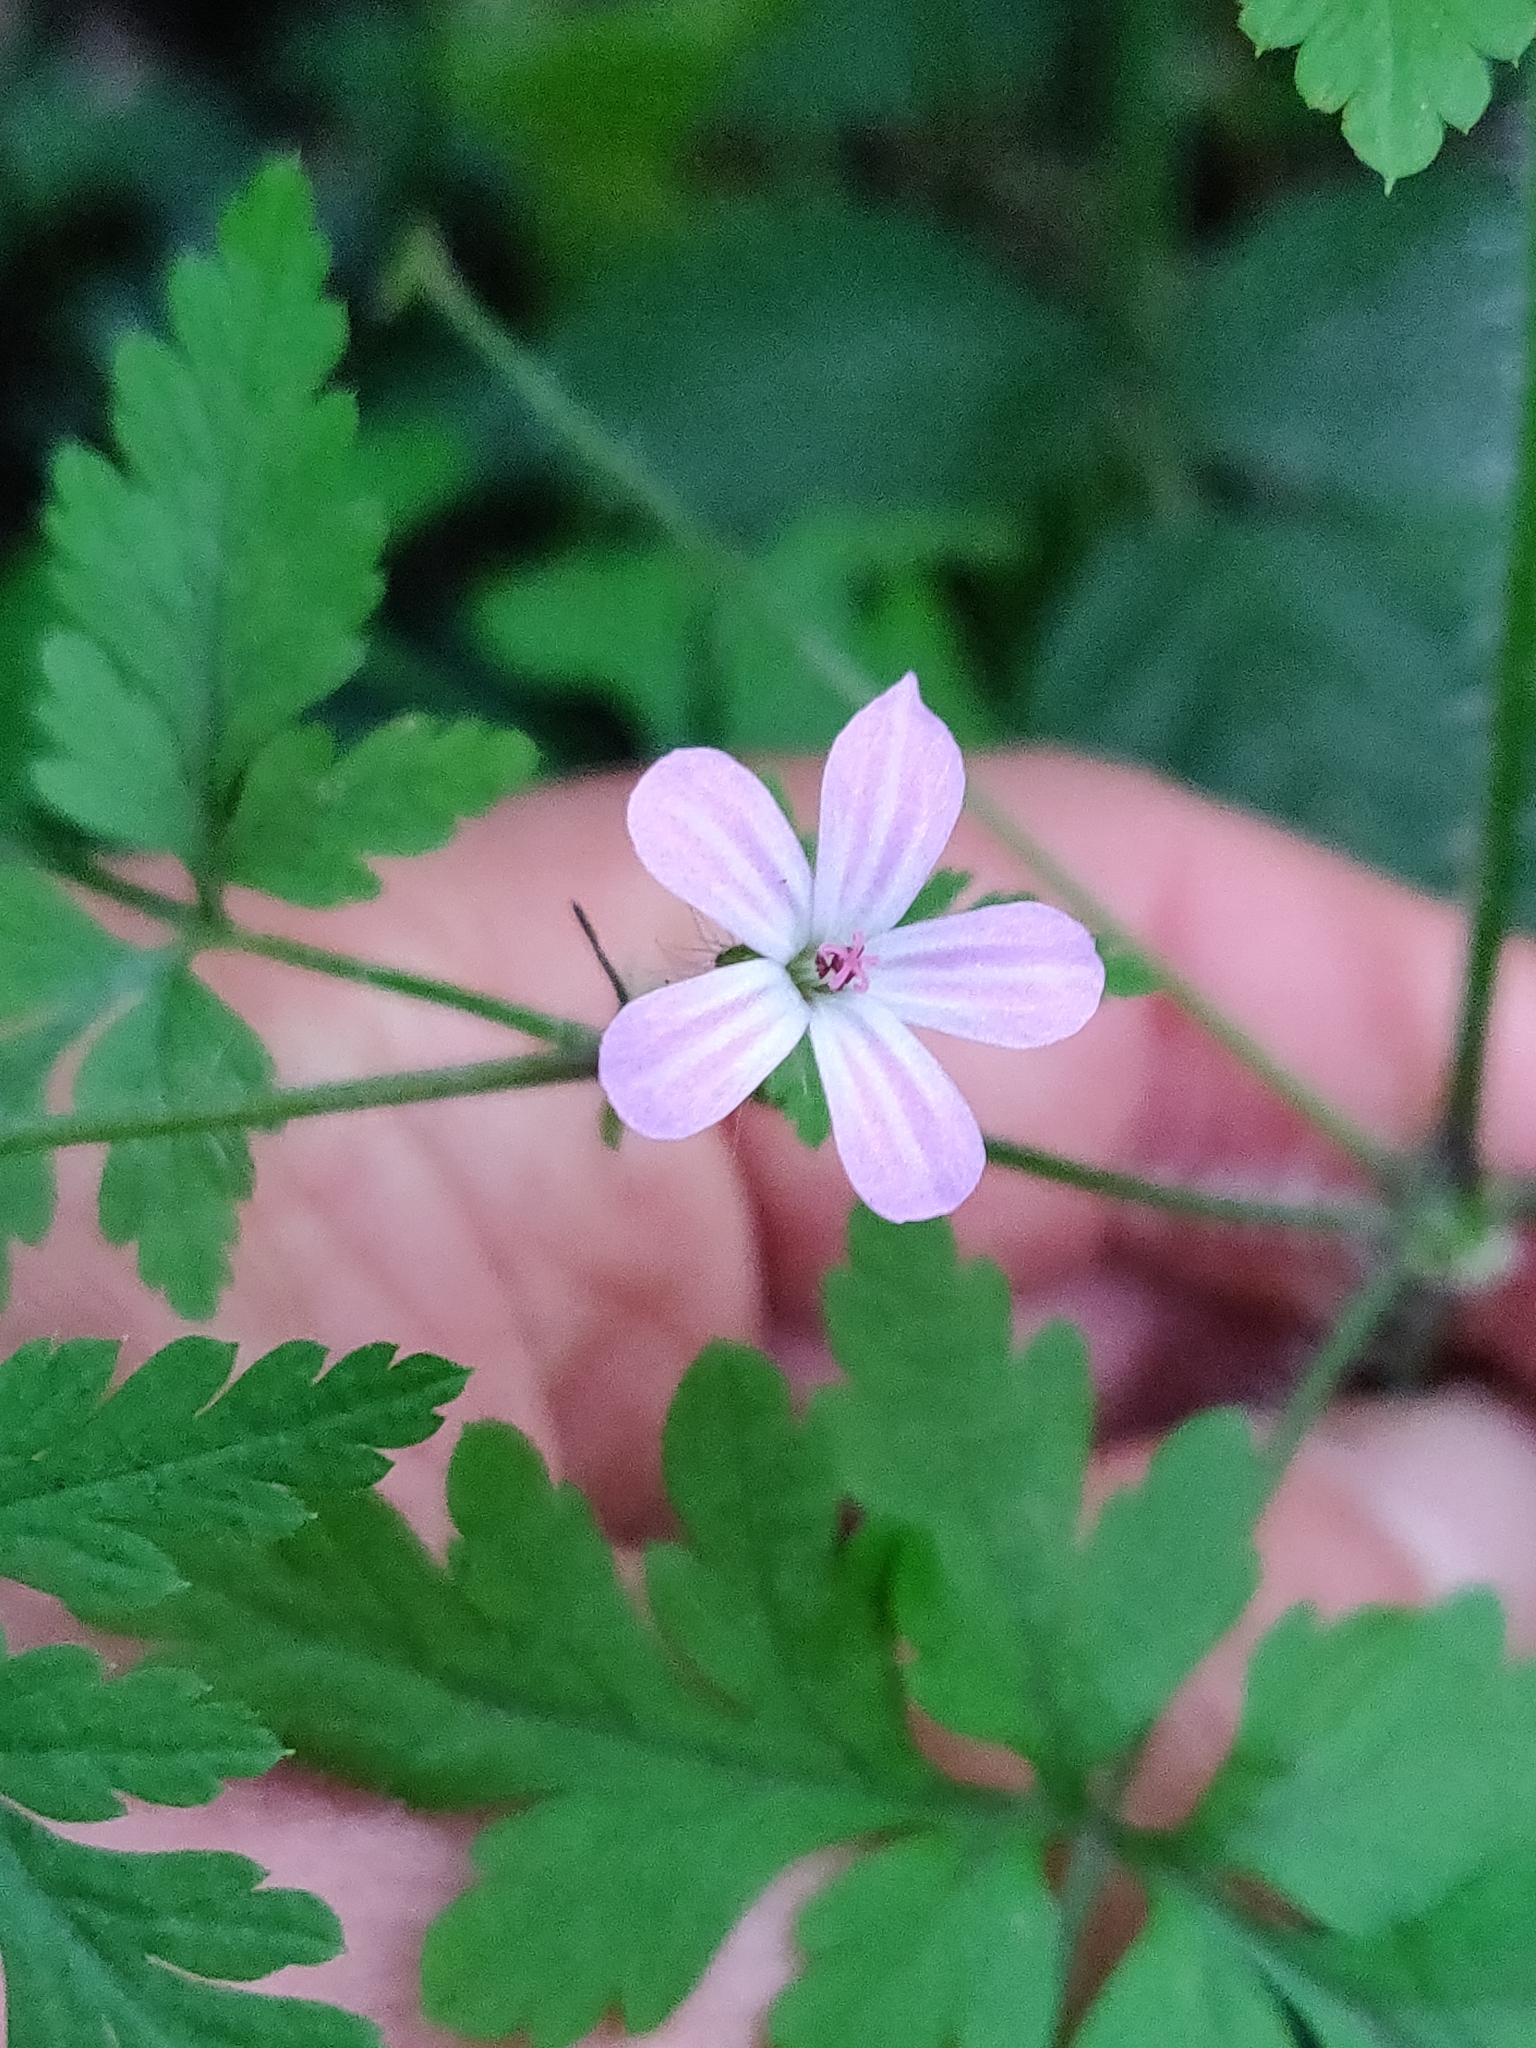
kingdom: Plantae
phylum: Tracheophyta
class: Magnoliopsida
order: Geraniales
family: Geraniaceae
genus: Geranium
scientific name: Geranium robertianum
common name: Herb-robert
